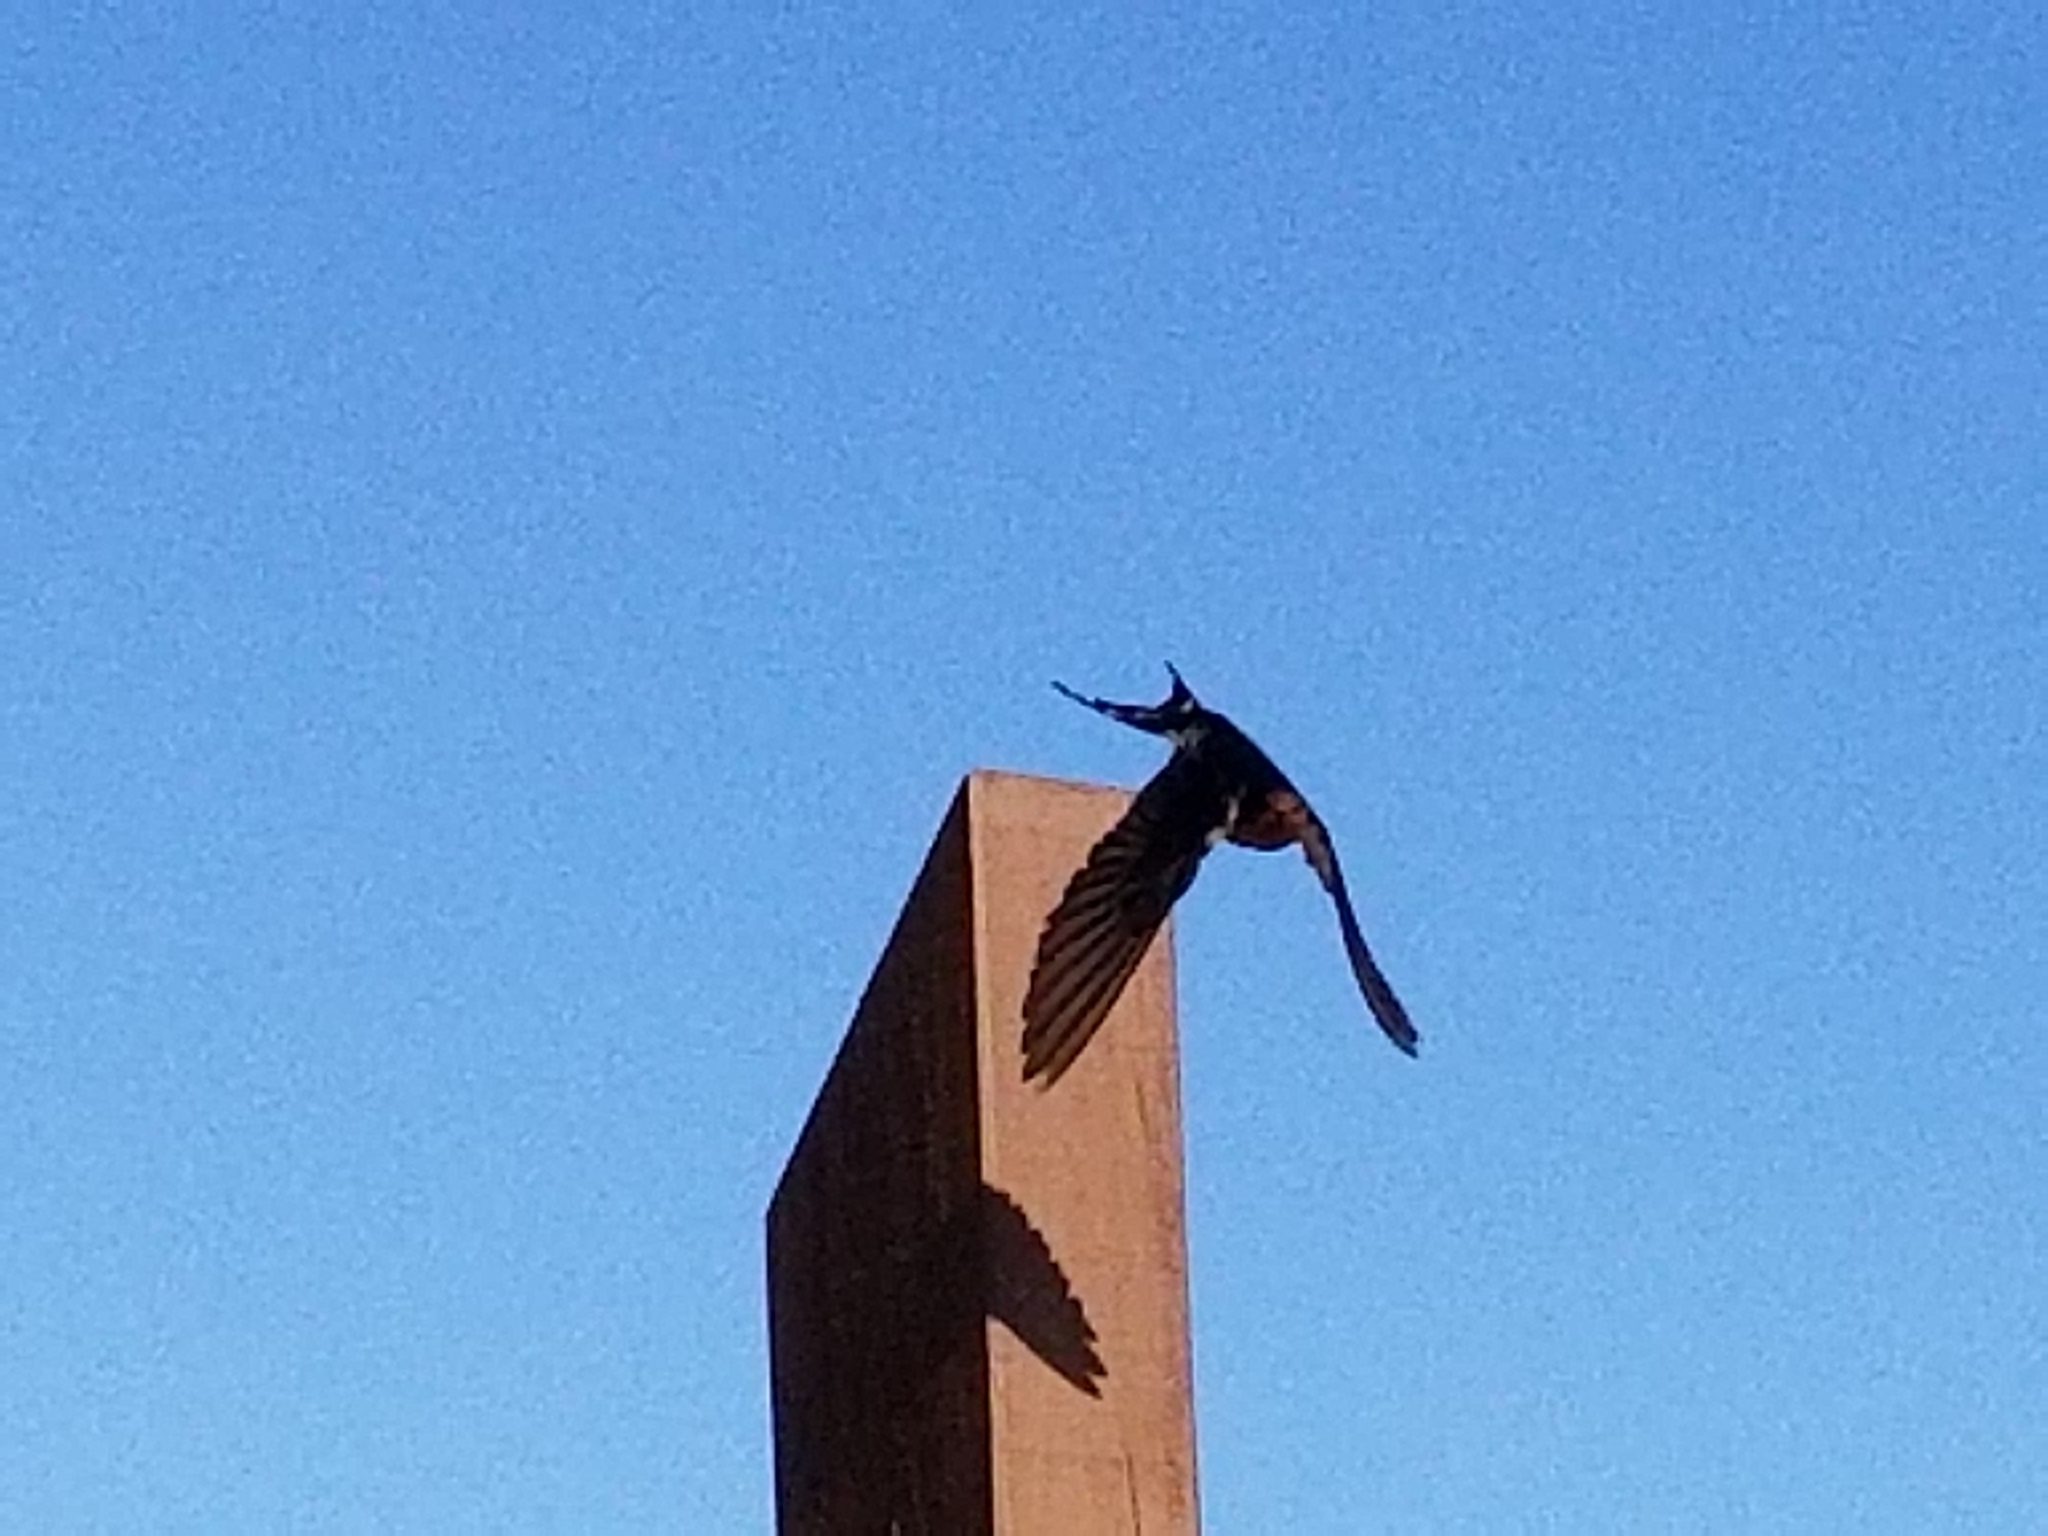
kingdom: Animalia
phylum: Chordata
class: Aves
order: Passeriformes
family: Hirundinidae
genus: Hirundo
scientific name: Hirundo neoxena
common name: Welcome swallow
